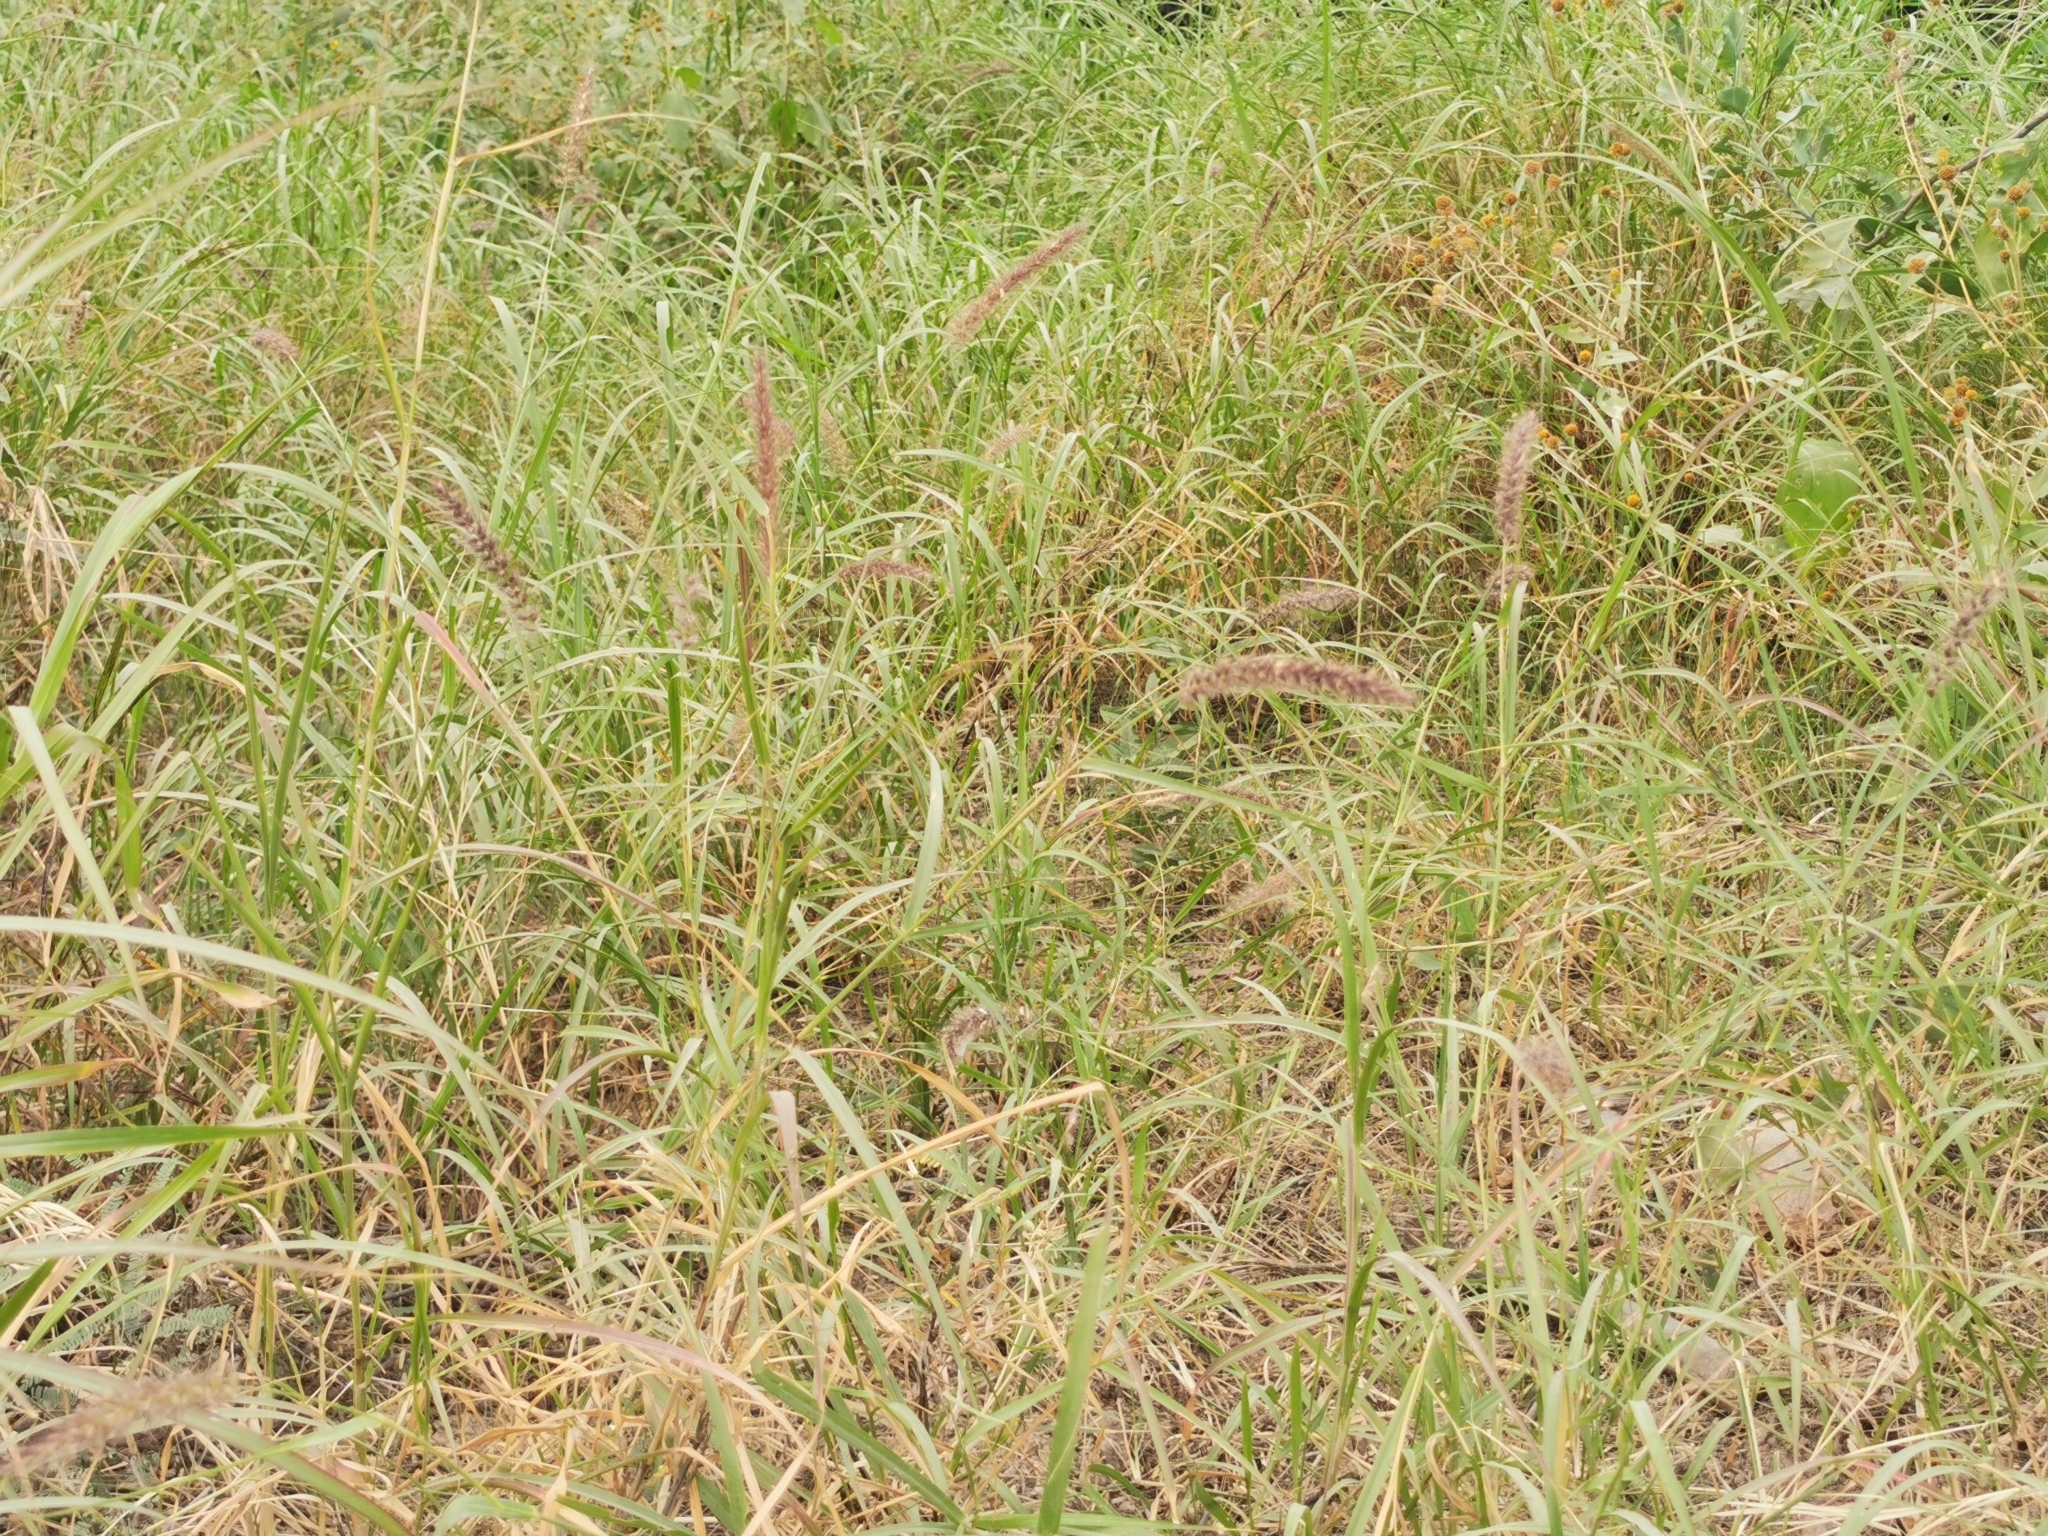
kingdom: Plantae
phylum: Tracheophyta
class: Liliopsida
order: Poales
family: Poaceae
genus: Cenchrus
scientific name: Cenchrus ciliaris
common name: Buffelgrass
